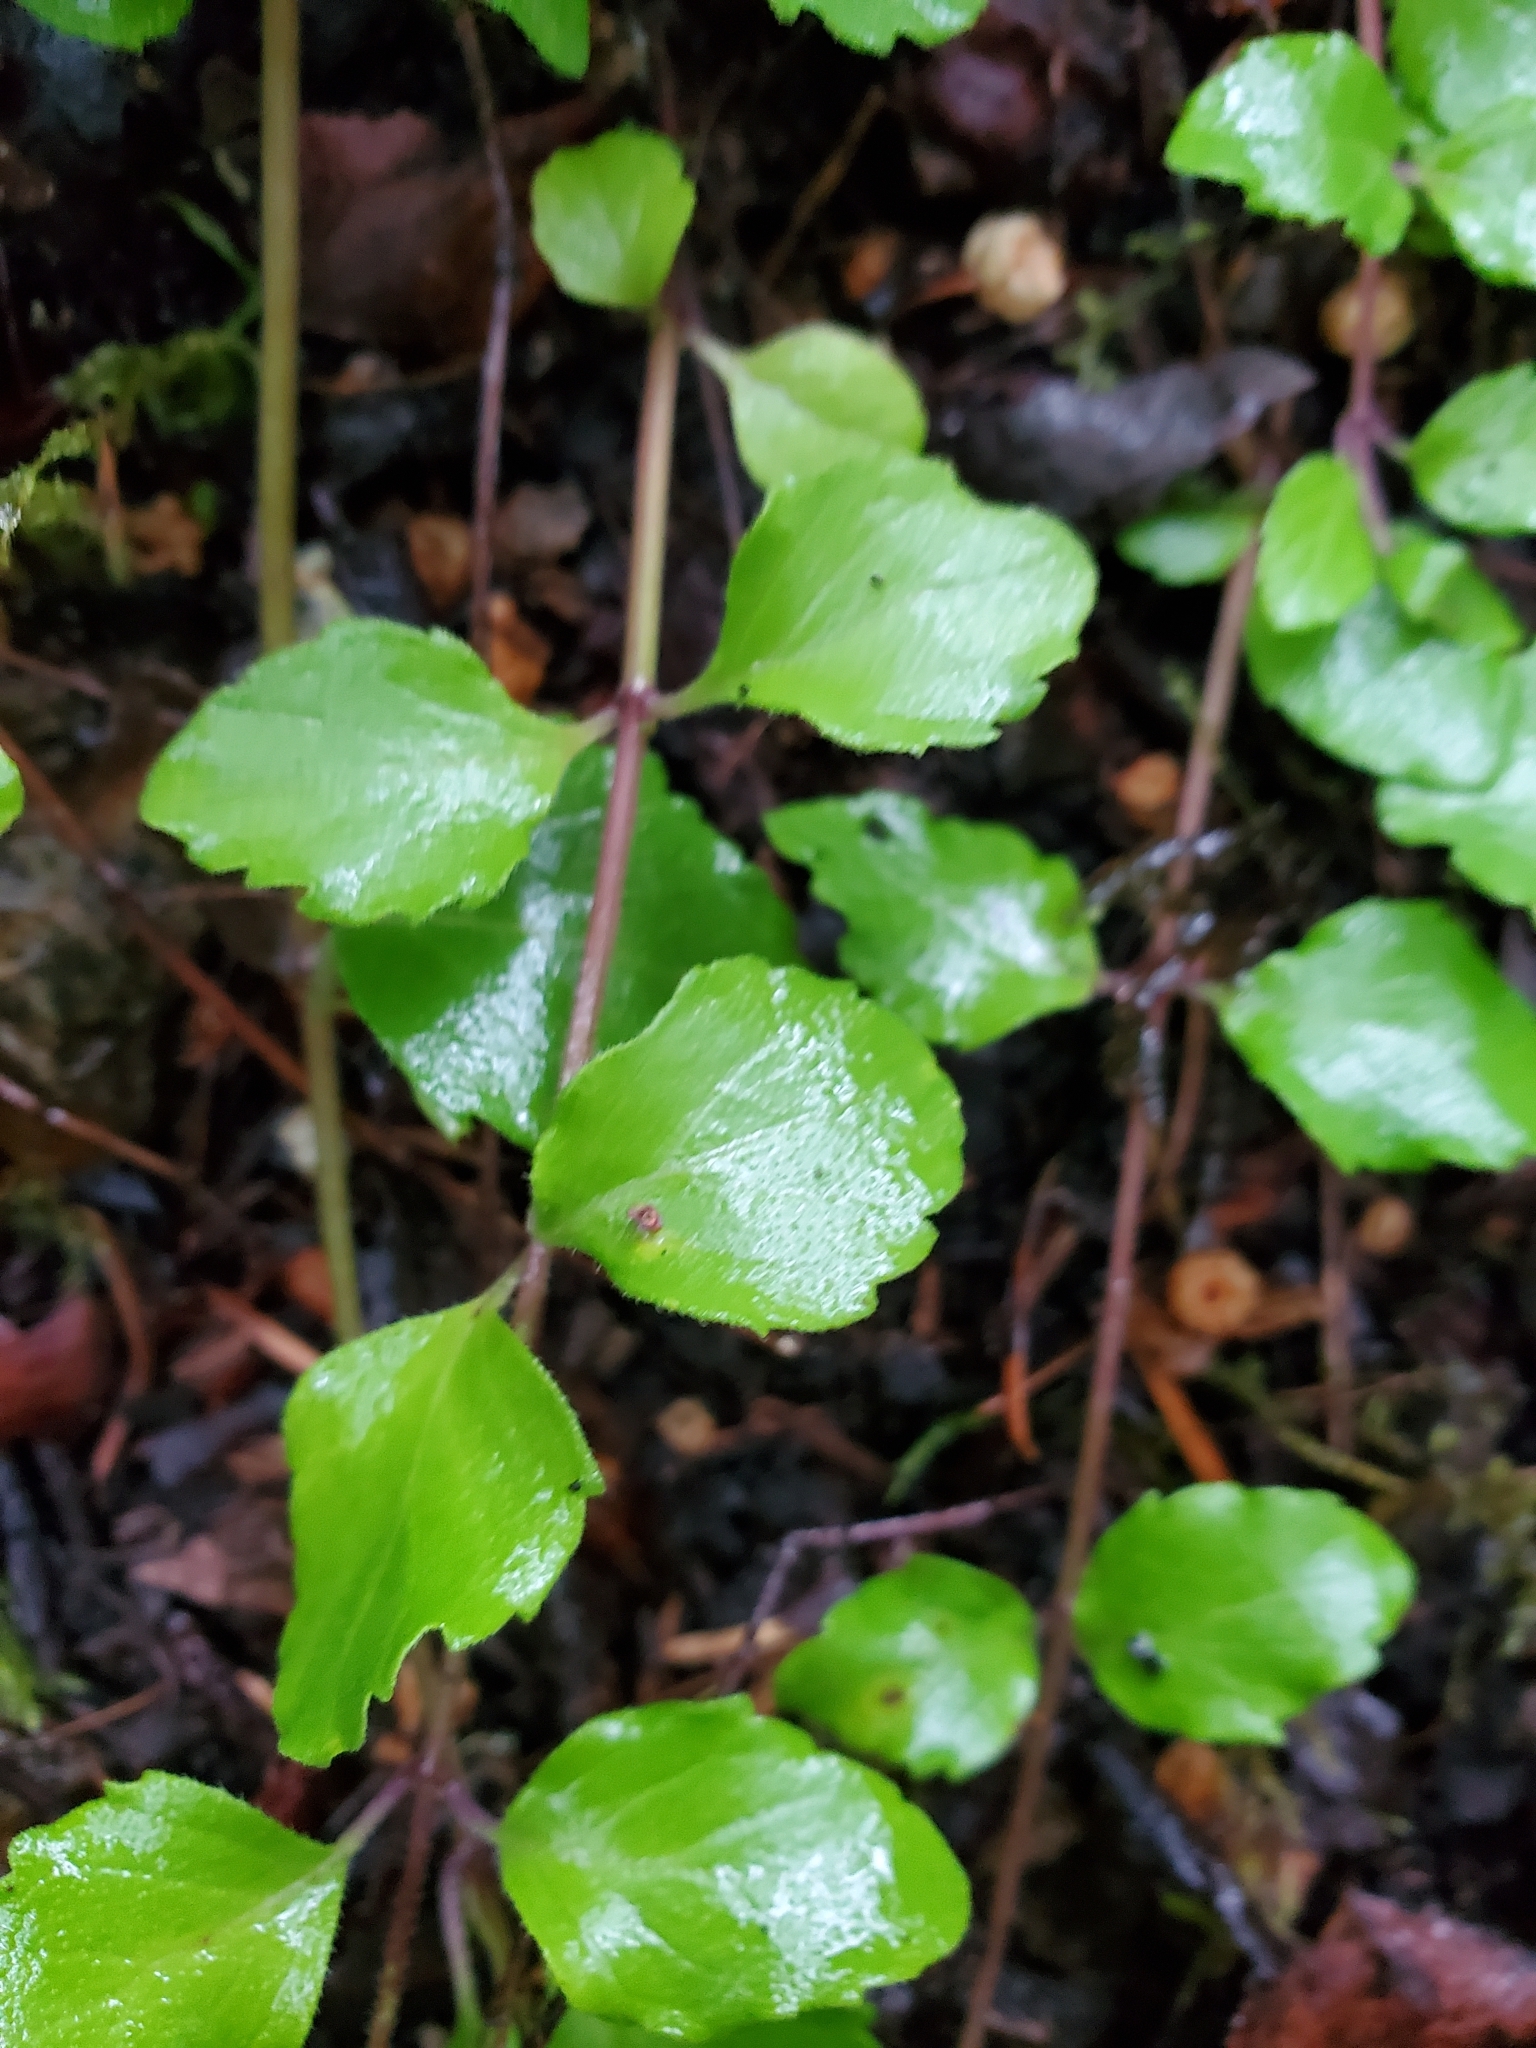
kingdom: Plantae
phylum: Tracheophyta
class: Magnoliopsida
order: Lamiales
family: Lamiaceae
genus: Micromeria
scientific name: Micromeria douglasii
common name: Yerba buena
